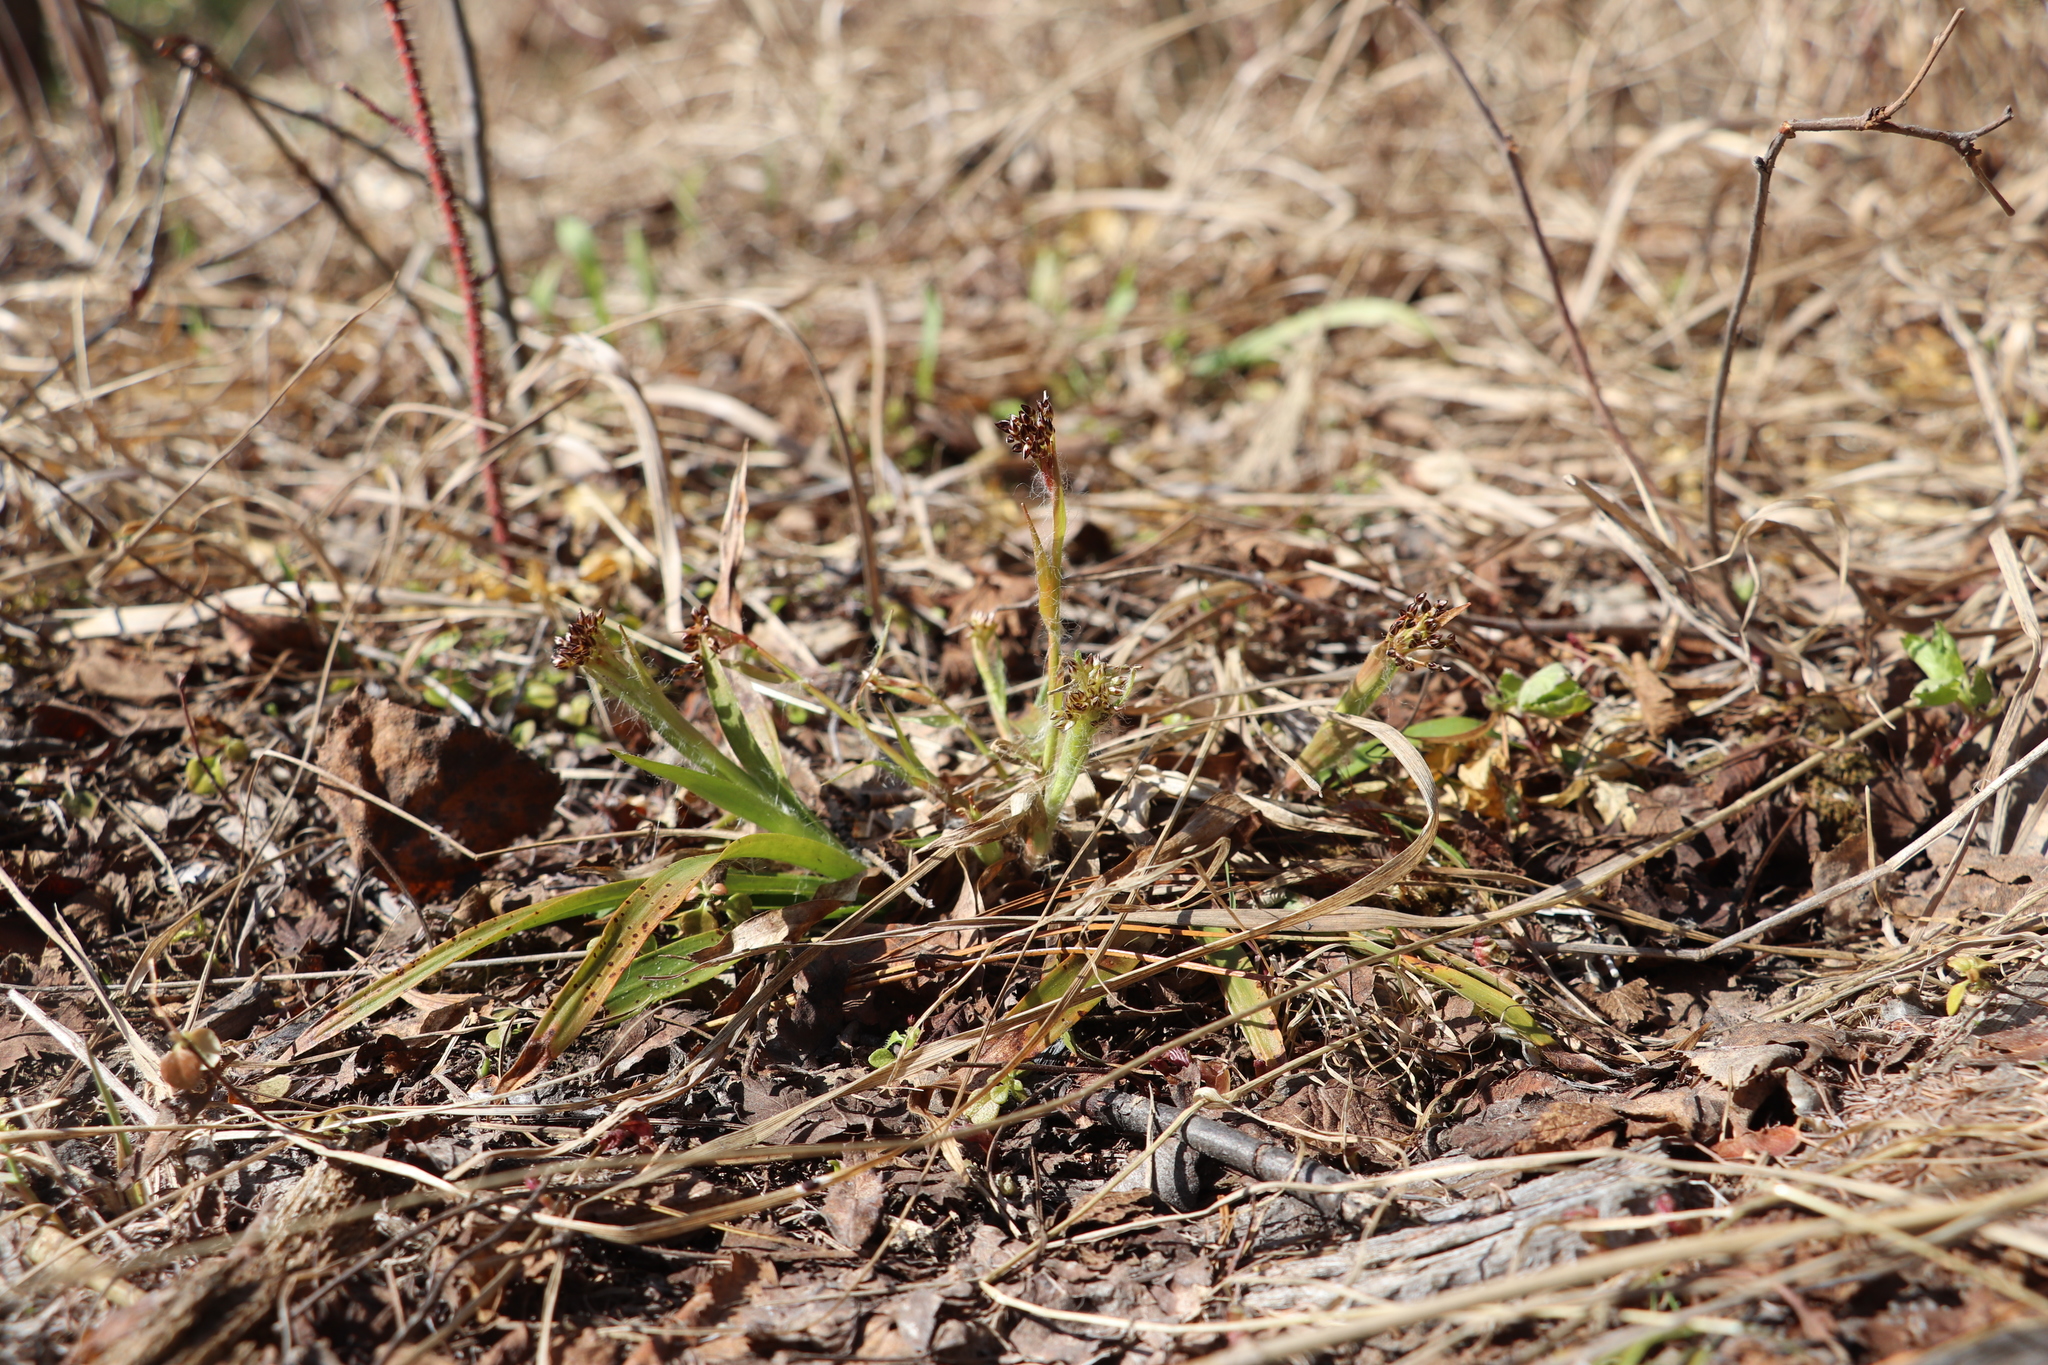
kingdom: Plantae
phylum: Tracheophyta
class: Liliopsida
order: Poales
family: Juncaceae
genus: Luzula
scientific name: Luzula pilosa
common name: Hairy wood-rush
